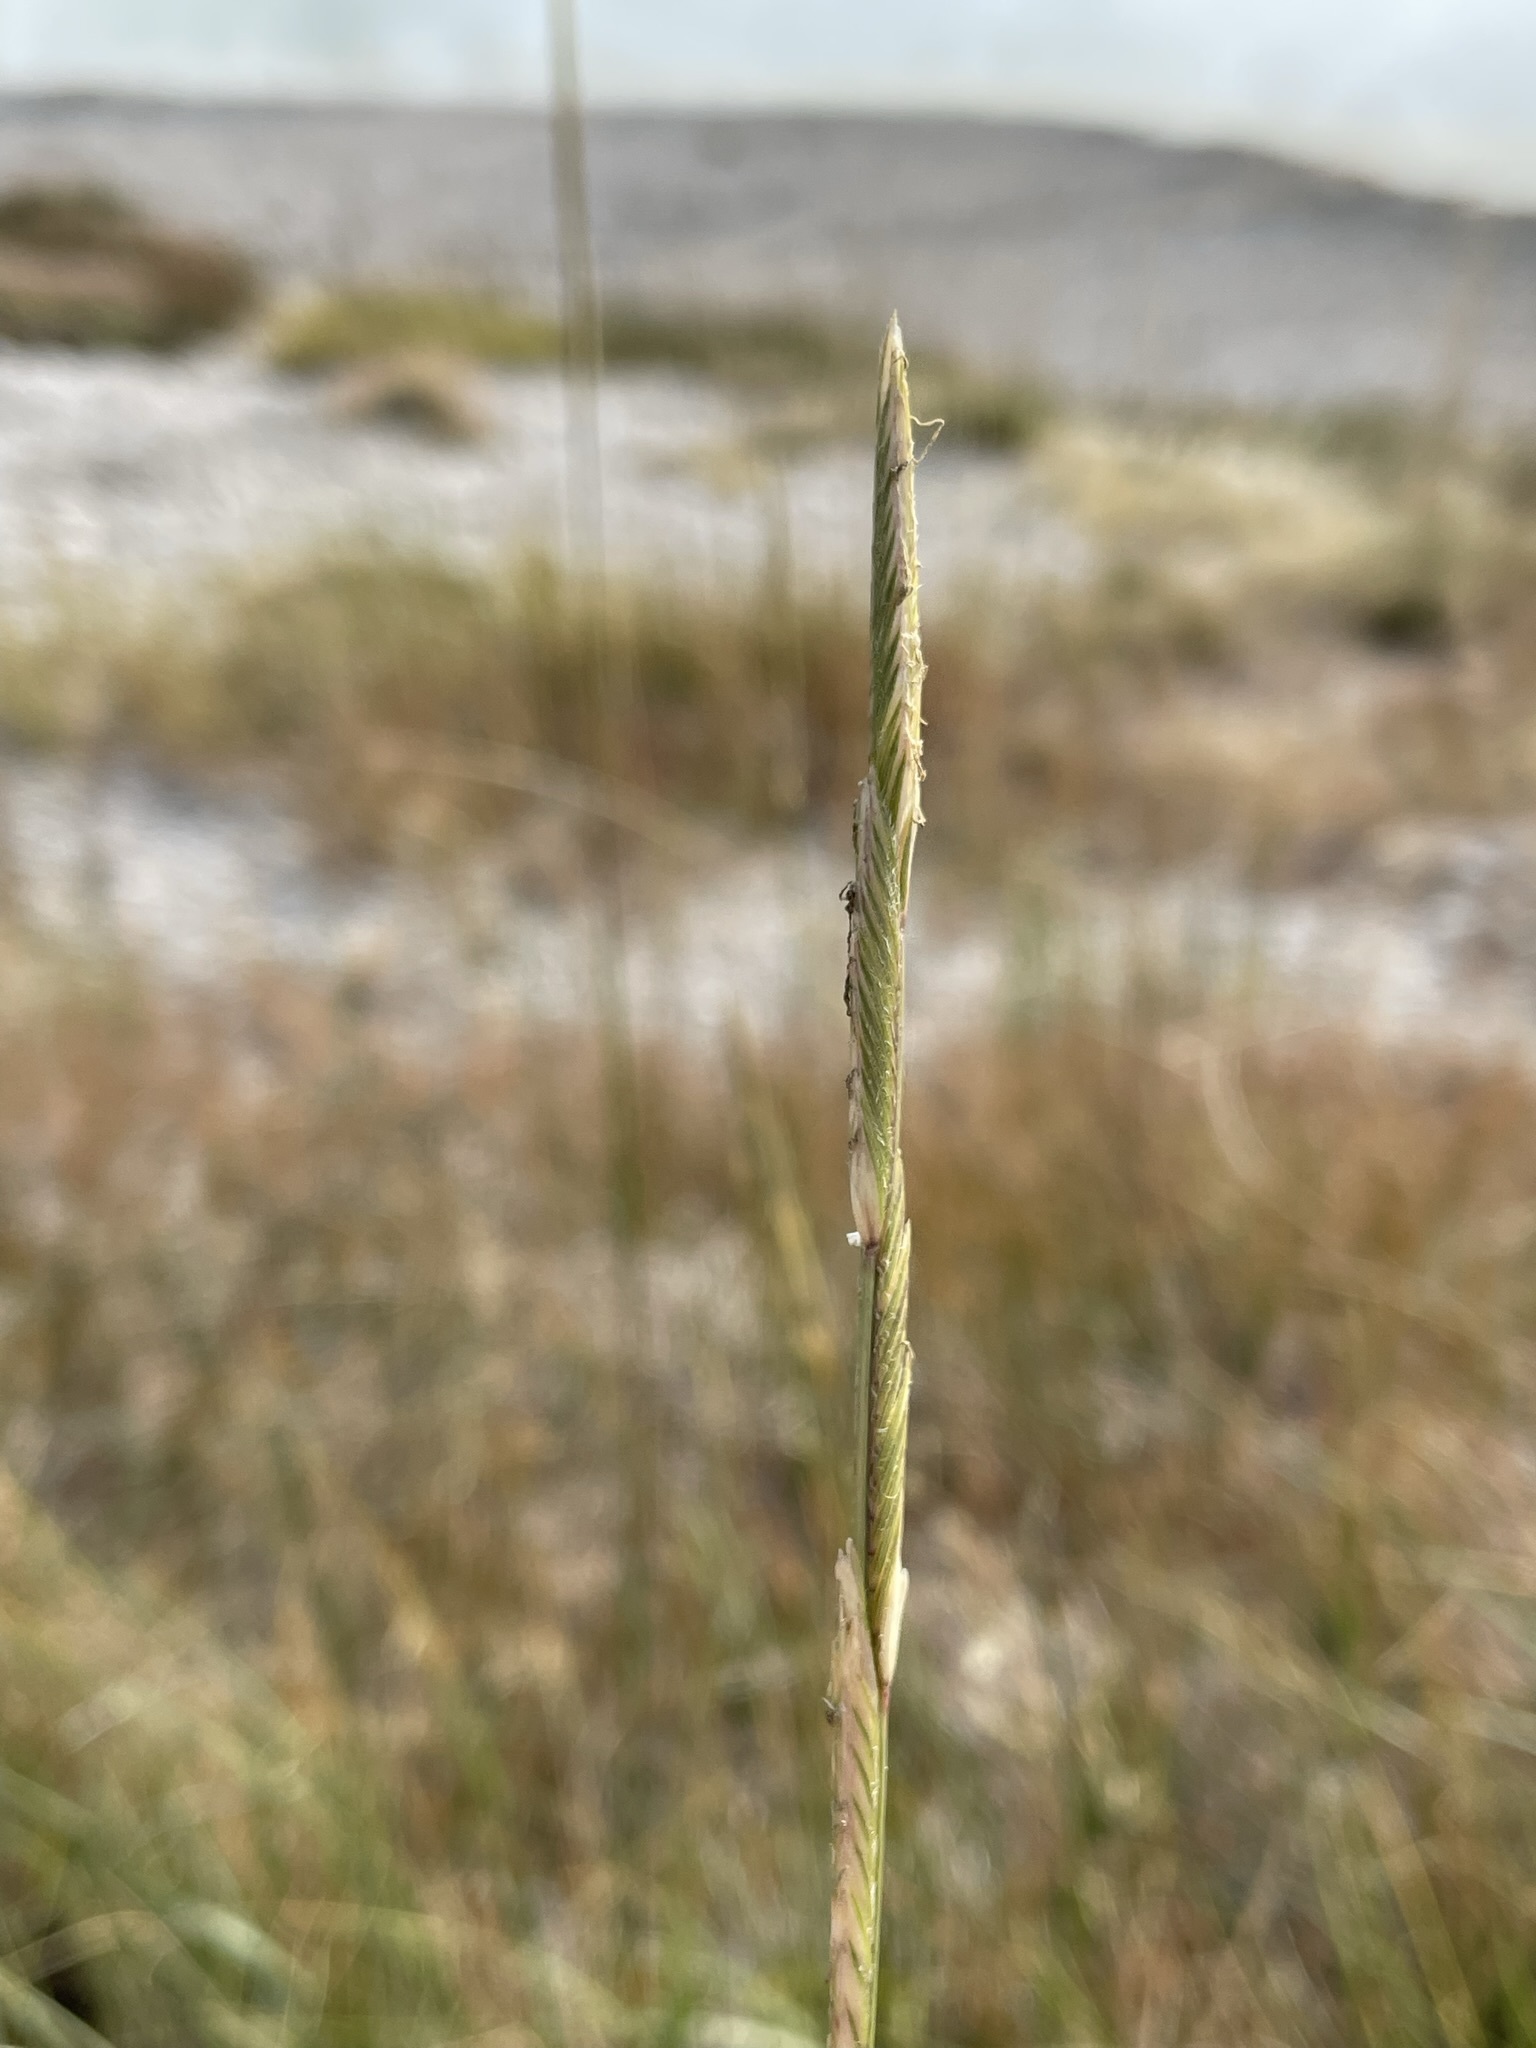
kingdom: Plantae
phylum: Tracheophyta
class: Liliopsida
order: Poales
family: Poaceae
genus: Sporobolus
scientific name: Sporobolus hookerianus
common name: Alkali cordgrass
